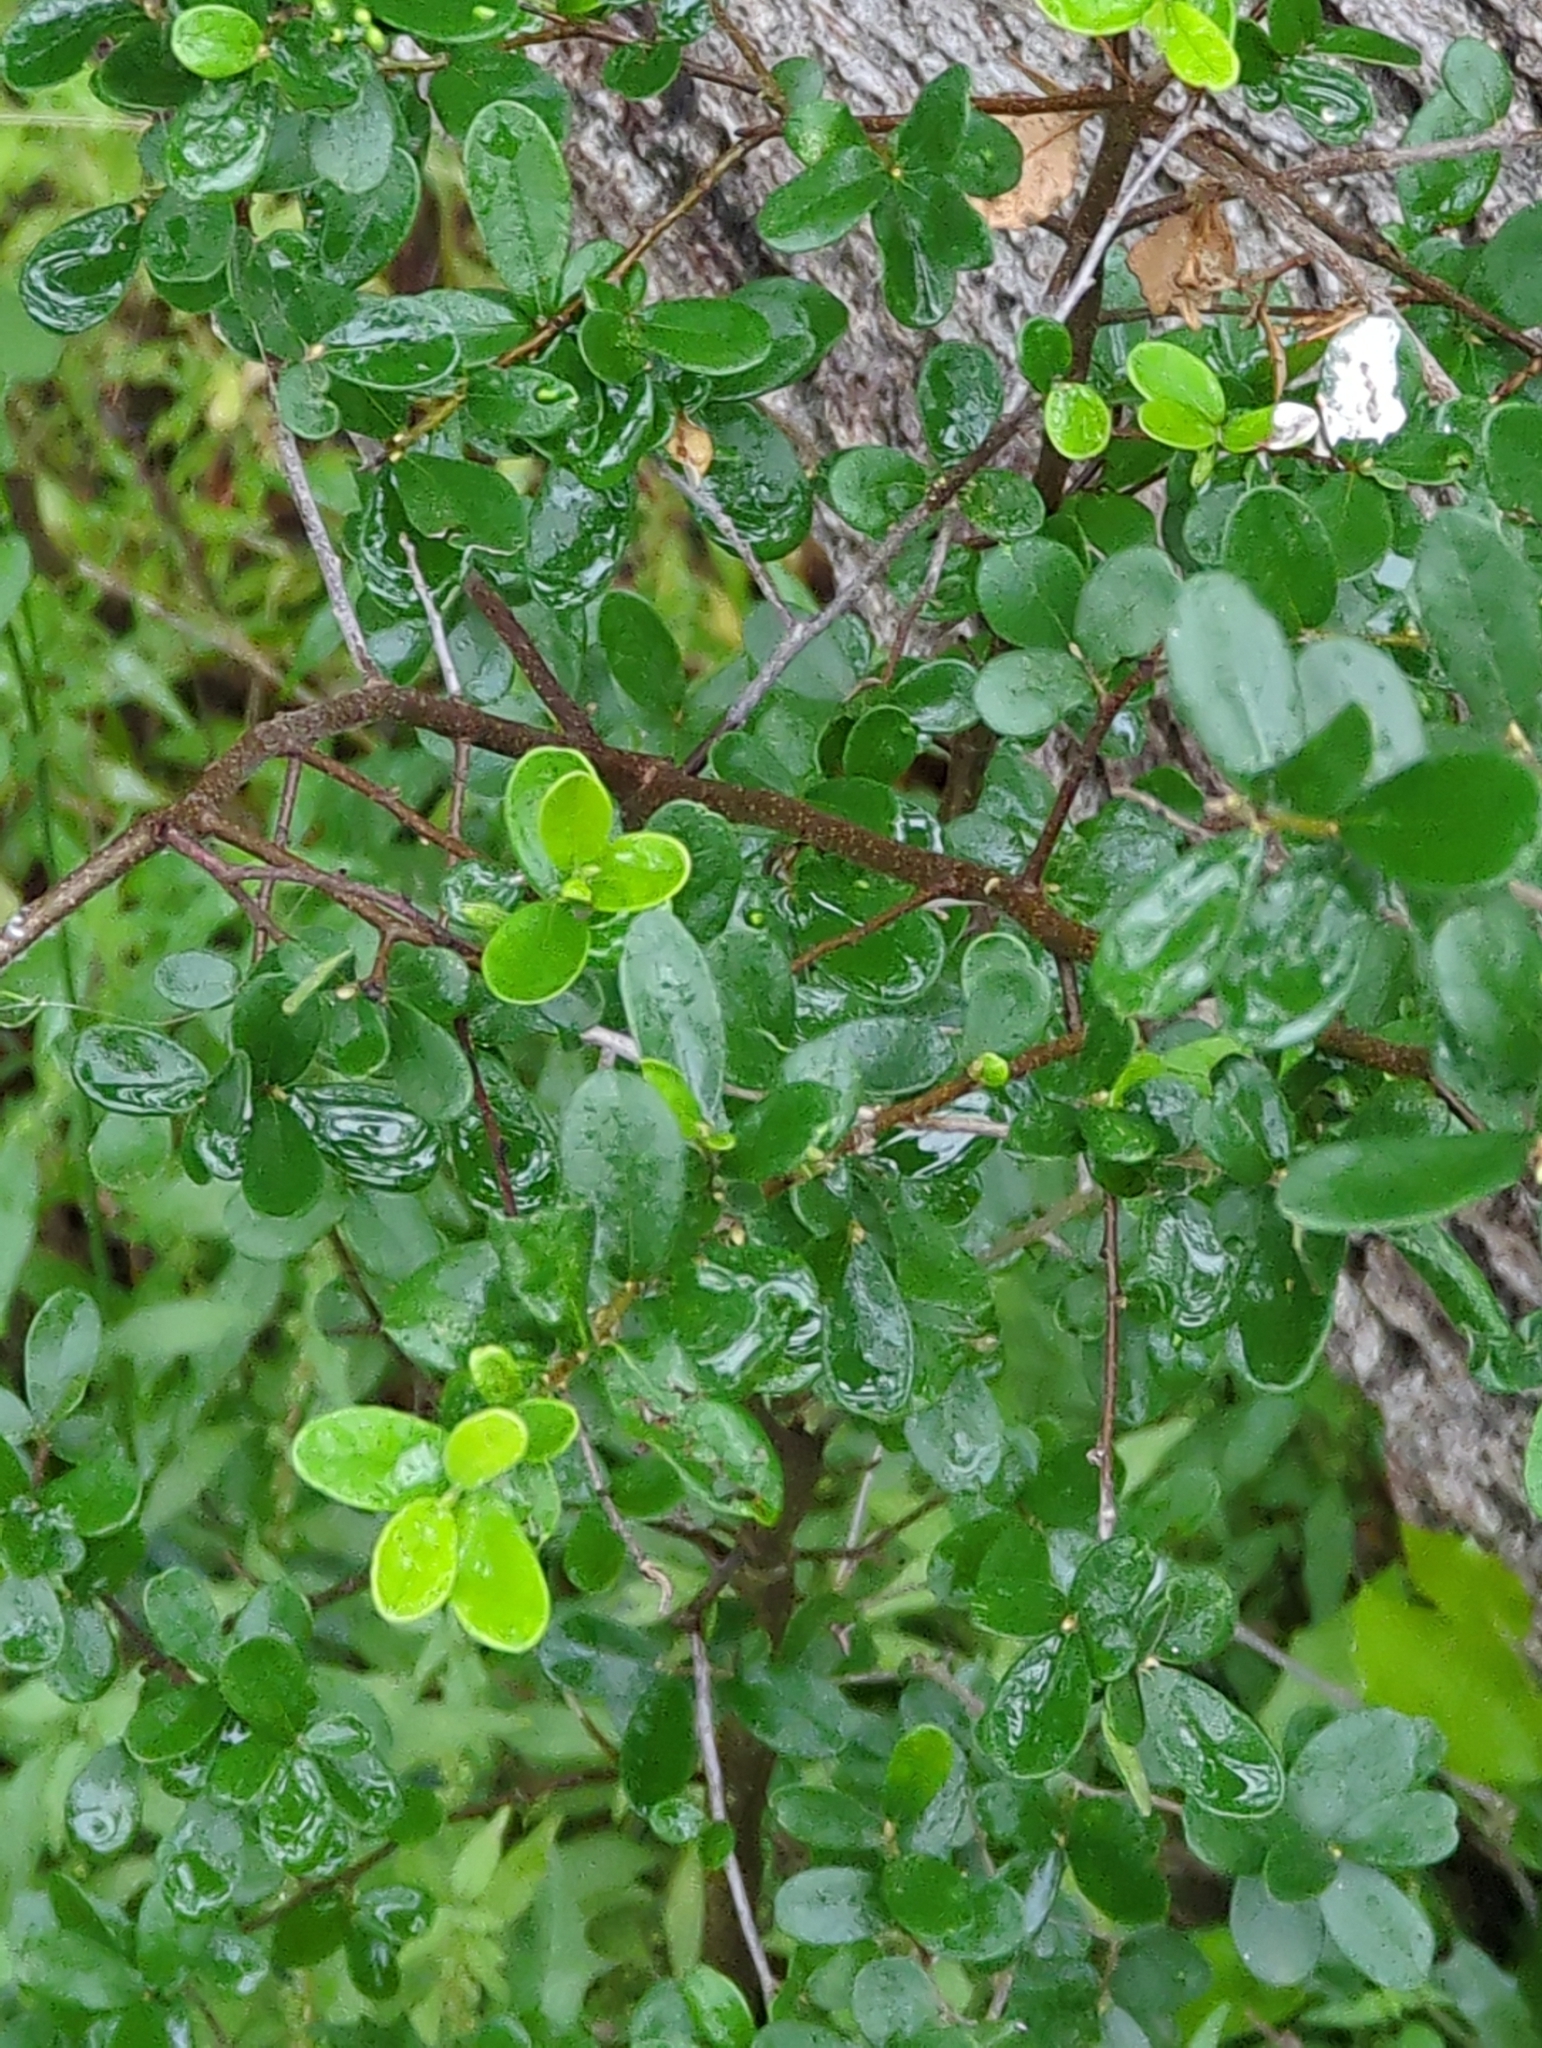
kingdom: Plantae
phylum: Tracheophyta
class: Magnoliopsida
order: Ericales
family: Ebenaceae
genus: Diospyros
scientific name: Diospyros texana
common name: Texas persimmon
